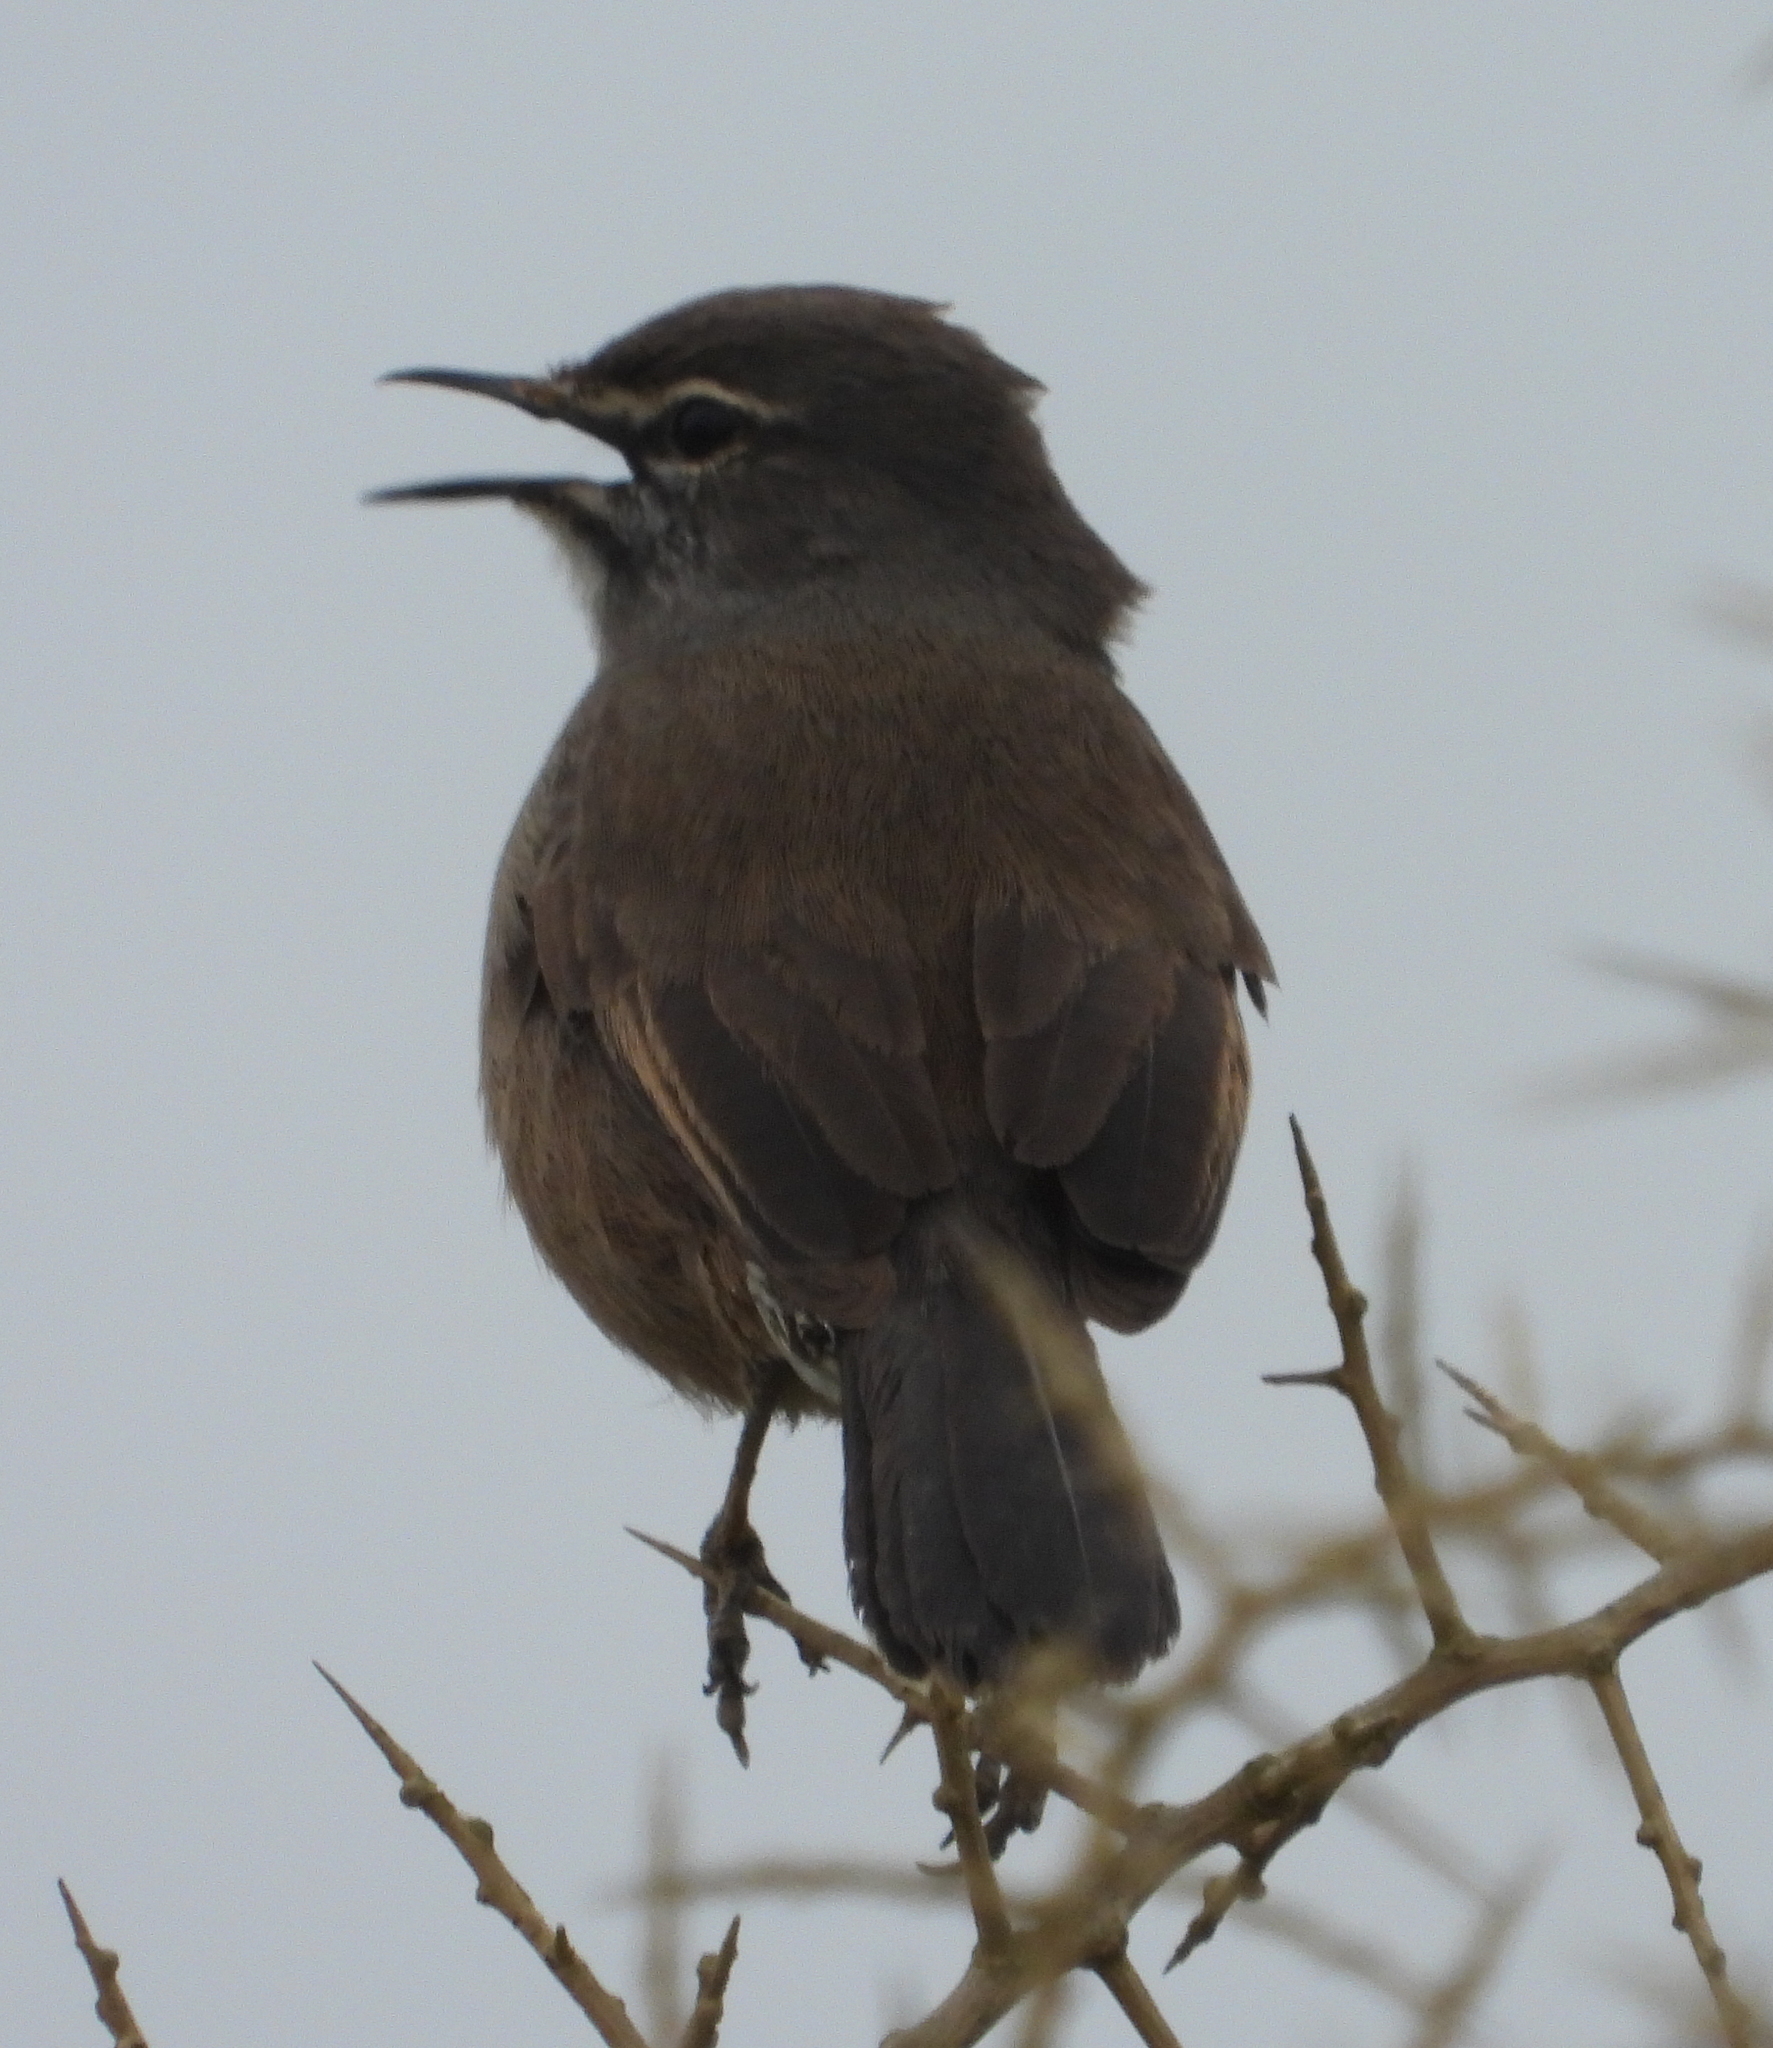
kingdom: Animalia
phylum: Chordata
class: Aves
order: Passeriformes
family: Muscicapidae
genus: Erythropygia
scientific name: Erythropygia coryphoeus
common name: Karoo scrub robin
